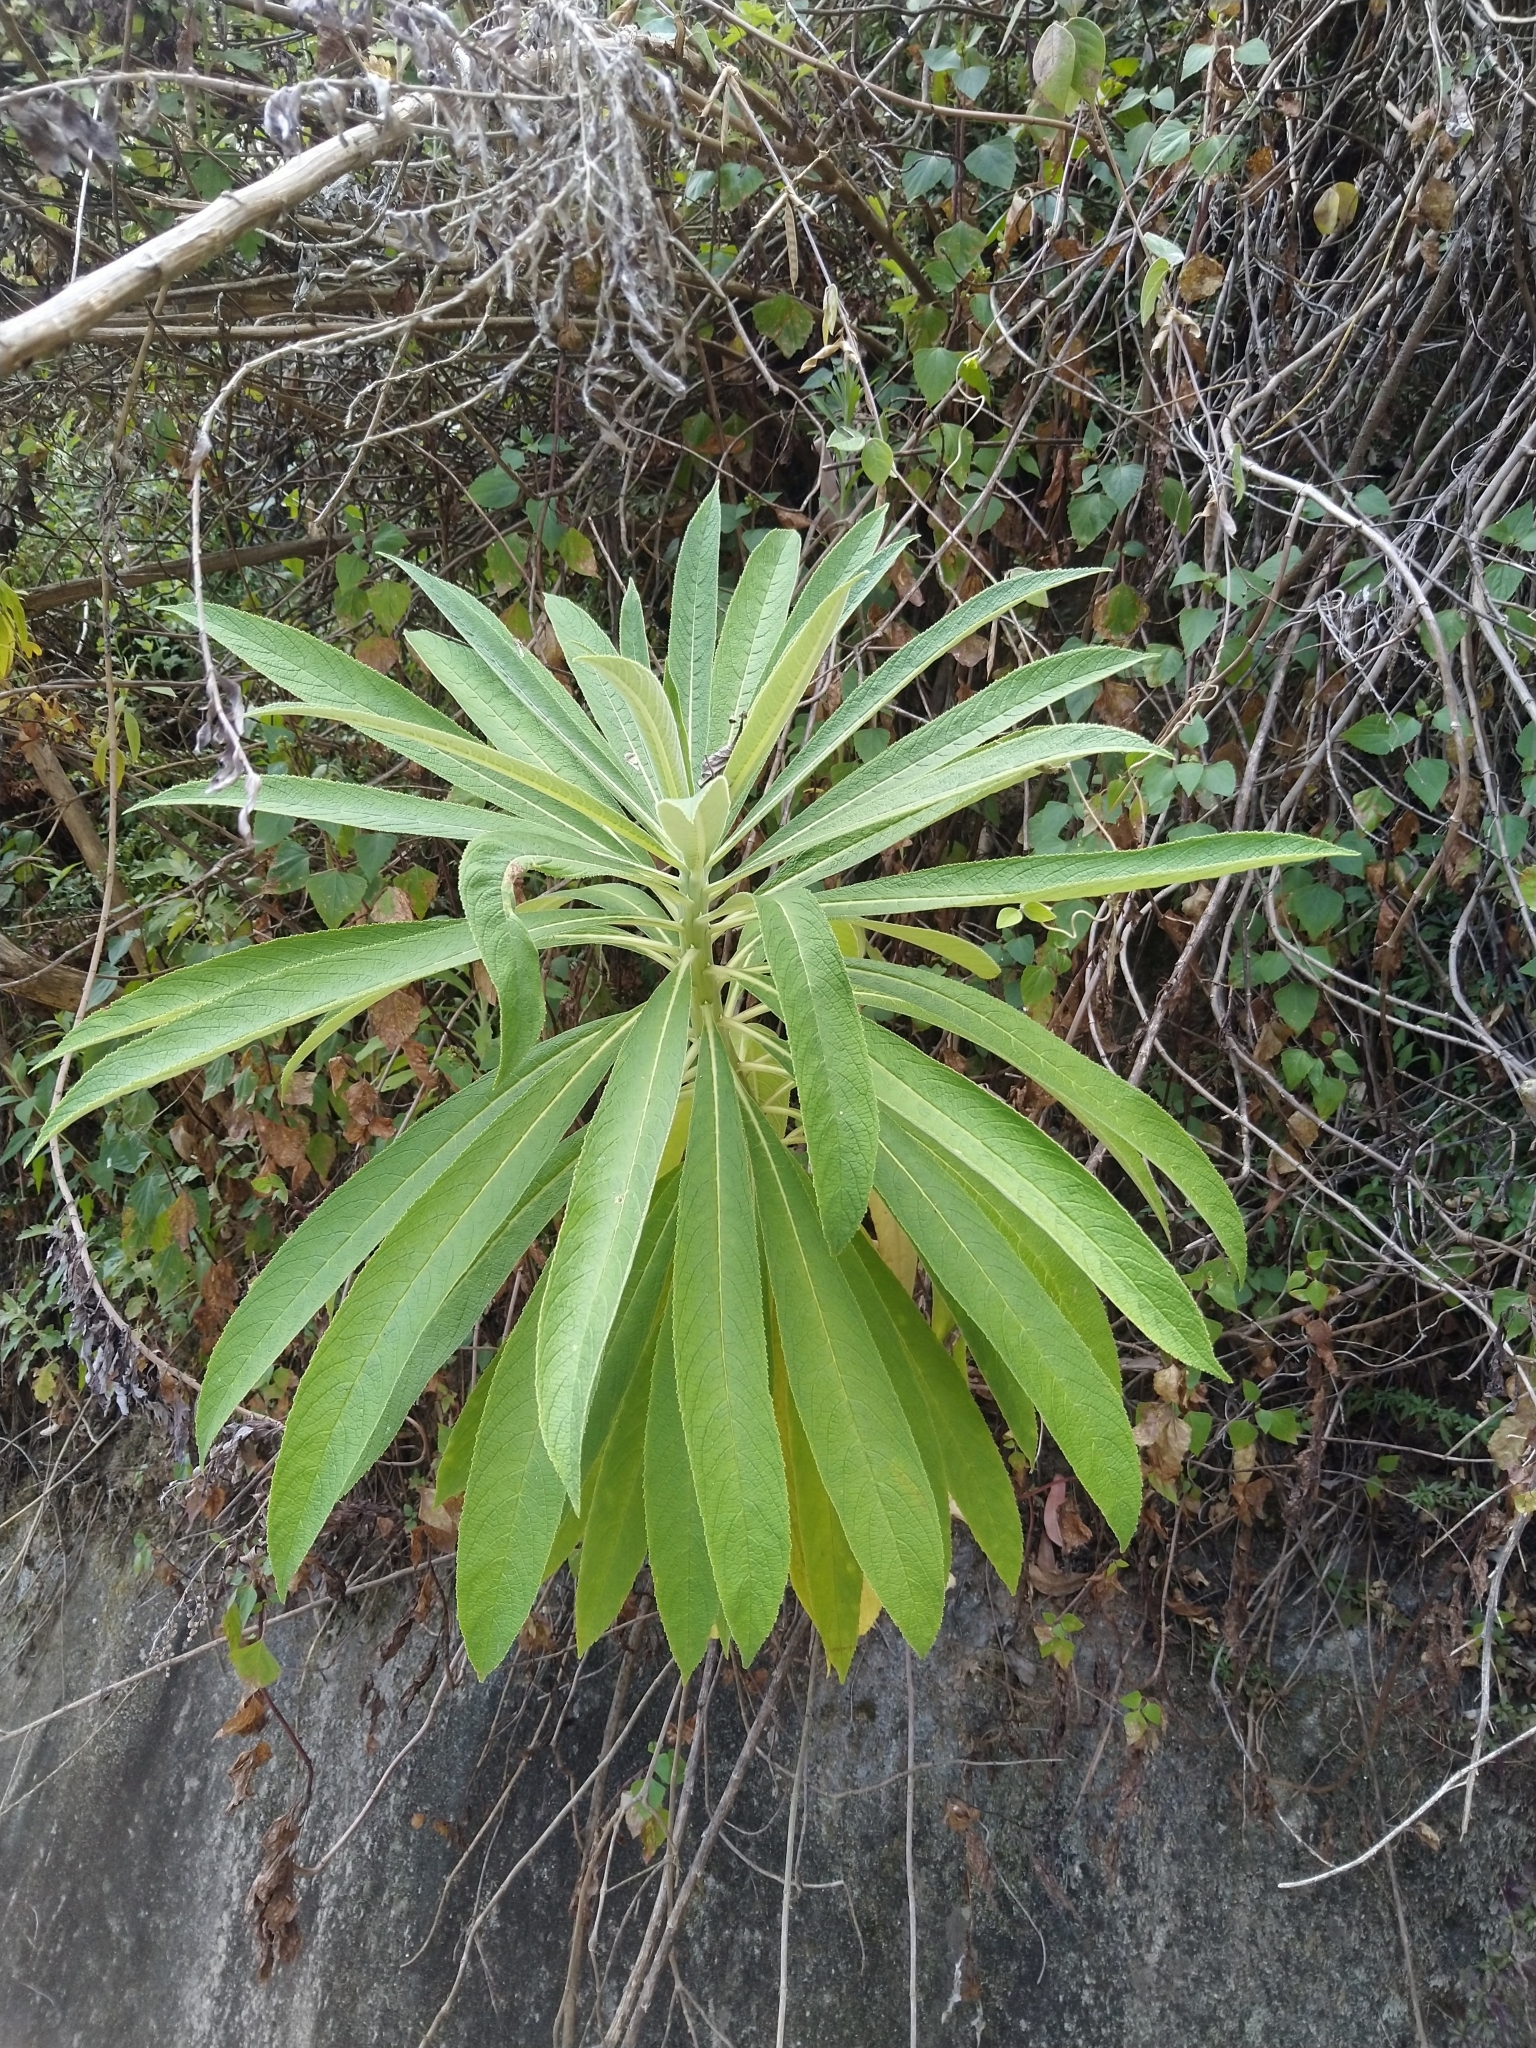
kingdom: Plantae
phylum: Tracheophyta
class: Magnoliopsida
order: Asterales
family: Campanulaceae
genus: Lobelia
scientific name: Lobelia nicotianifolia
